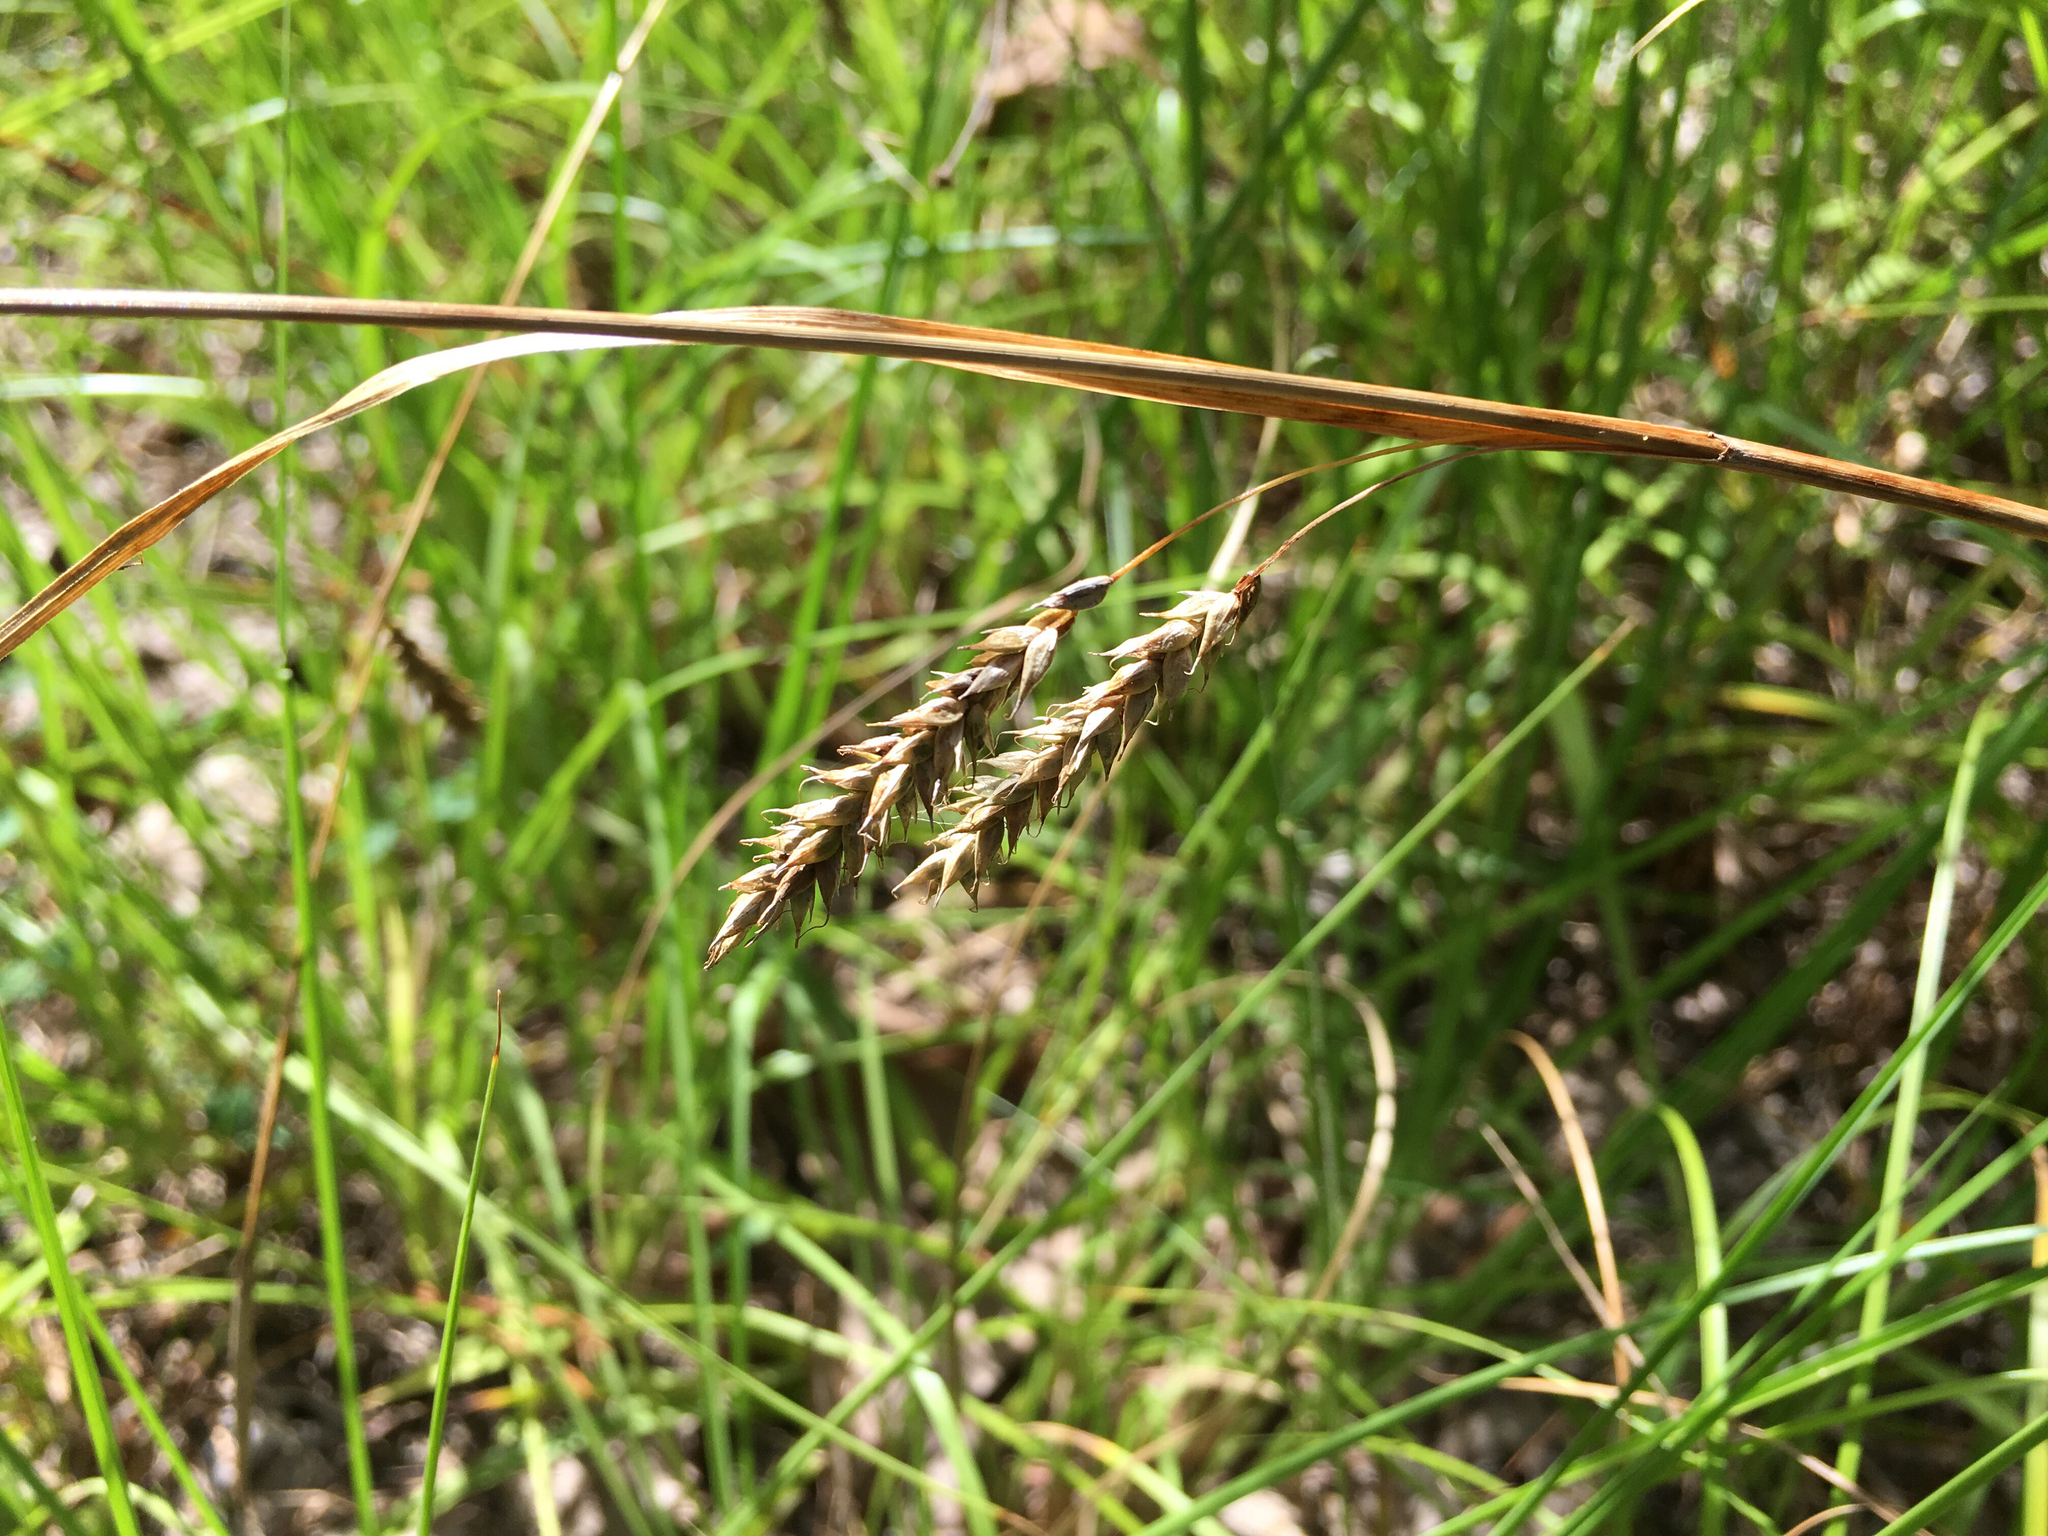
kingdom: Plantae
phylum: Tracheophyta
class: Liliopsida
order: Poales
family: Cyperaceae
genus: Carex
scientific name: Carex cherokeensis
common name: Cherokee sedge
